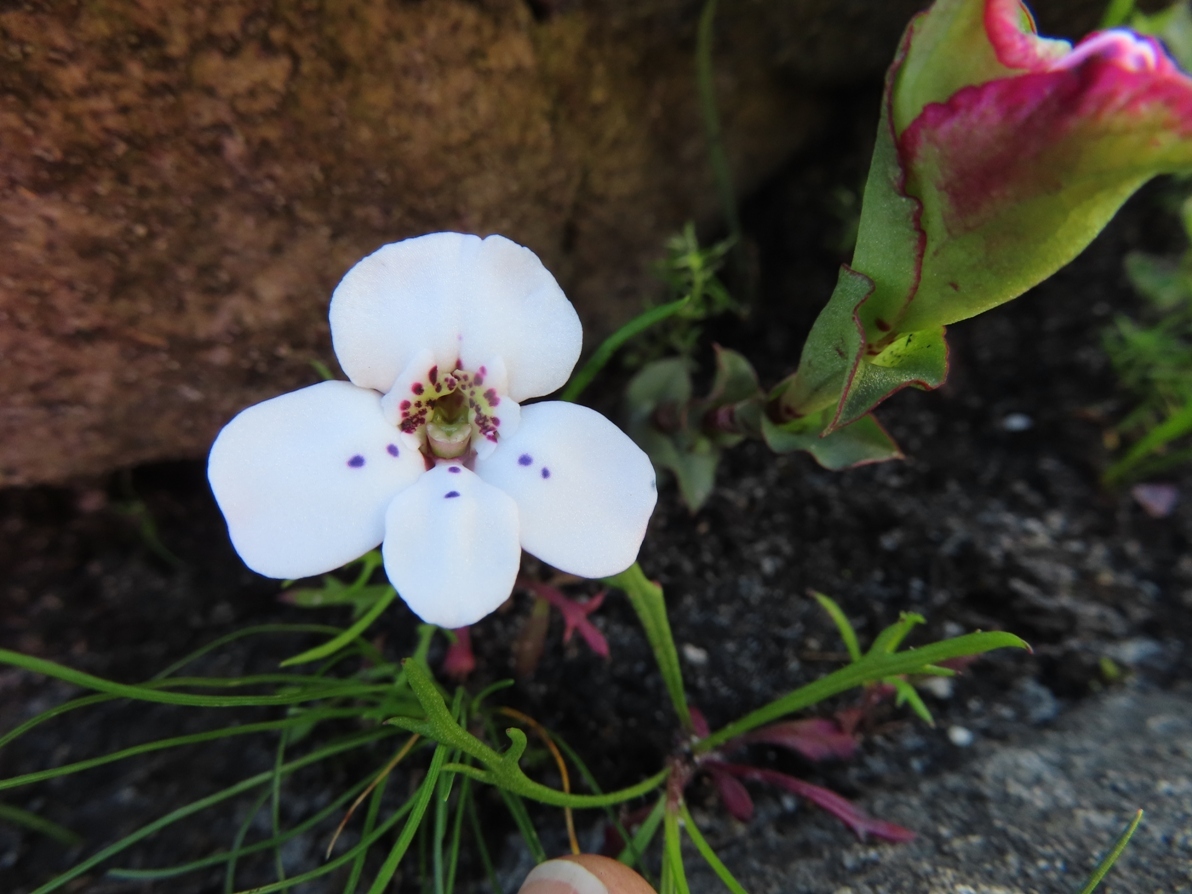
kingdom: Plantae
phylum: Tracheophyta
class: Liliopsida
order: Asparagales
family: Orchidaceae
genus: Disa
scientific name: Disa fasciata
